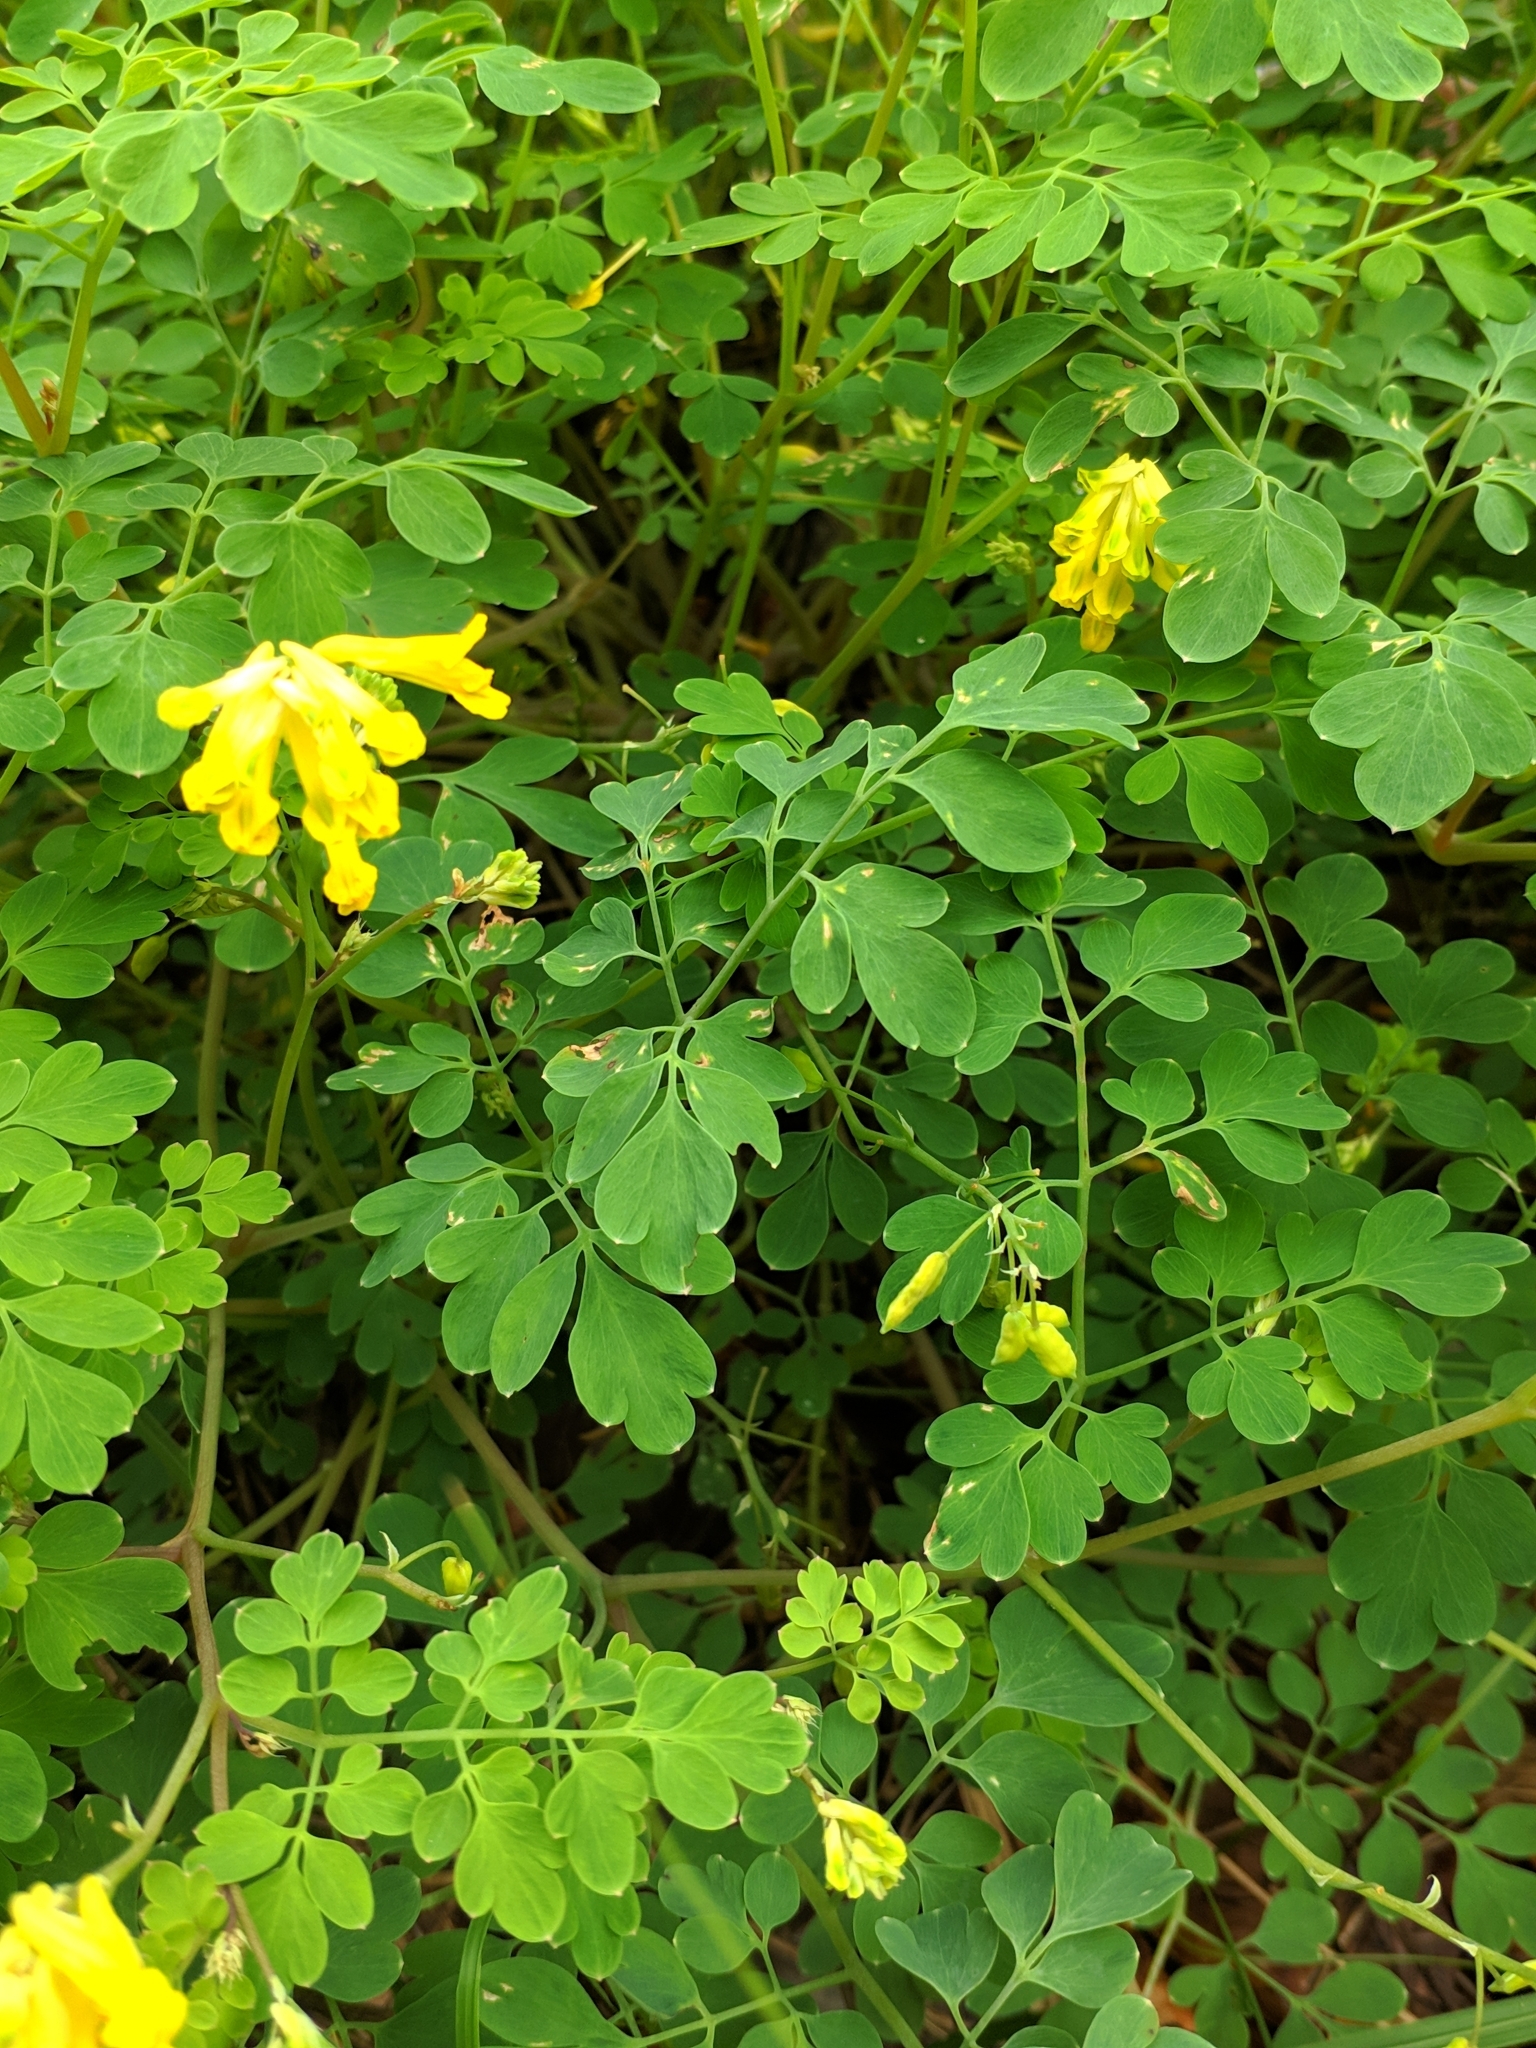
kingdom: Plantae
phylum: Tracheophyta
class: Magnoliopsida
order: Ranunculales
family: Papaveraceae
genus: Pseudofumaria
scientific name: Pseudofumaria lutea
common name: Yellow corydalis
